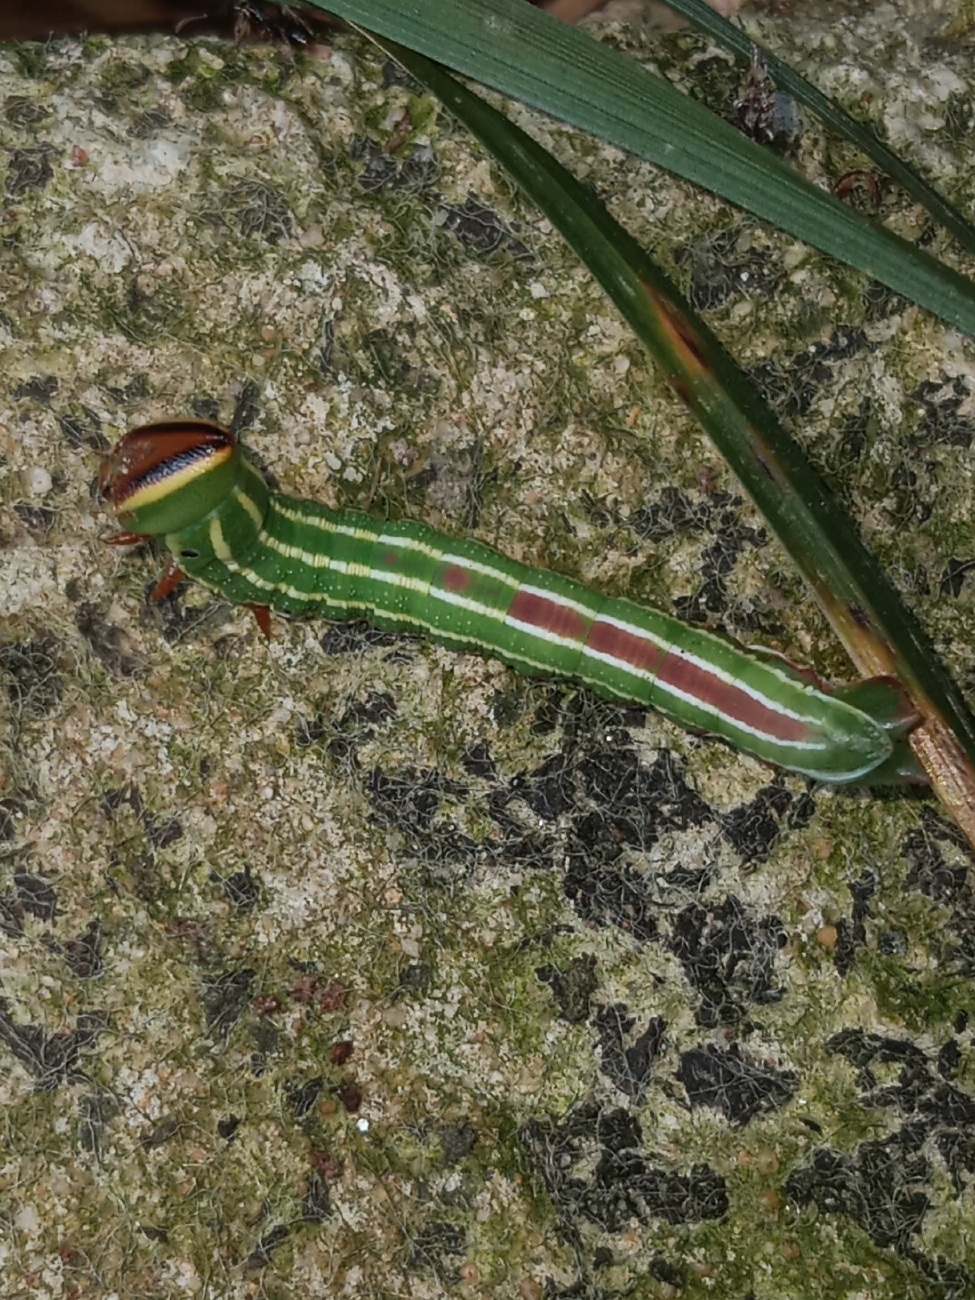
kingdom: Animalia
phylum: Arthropoda
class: Insecta
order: Lepidoptera
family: Sphingidae
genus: Lapara
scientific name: Lapara coniferarum
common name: Southern pine sphinx
